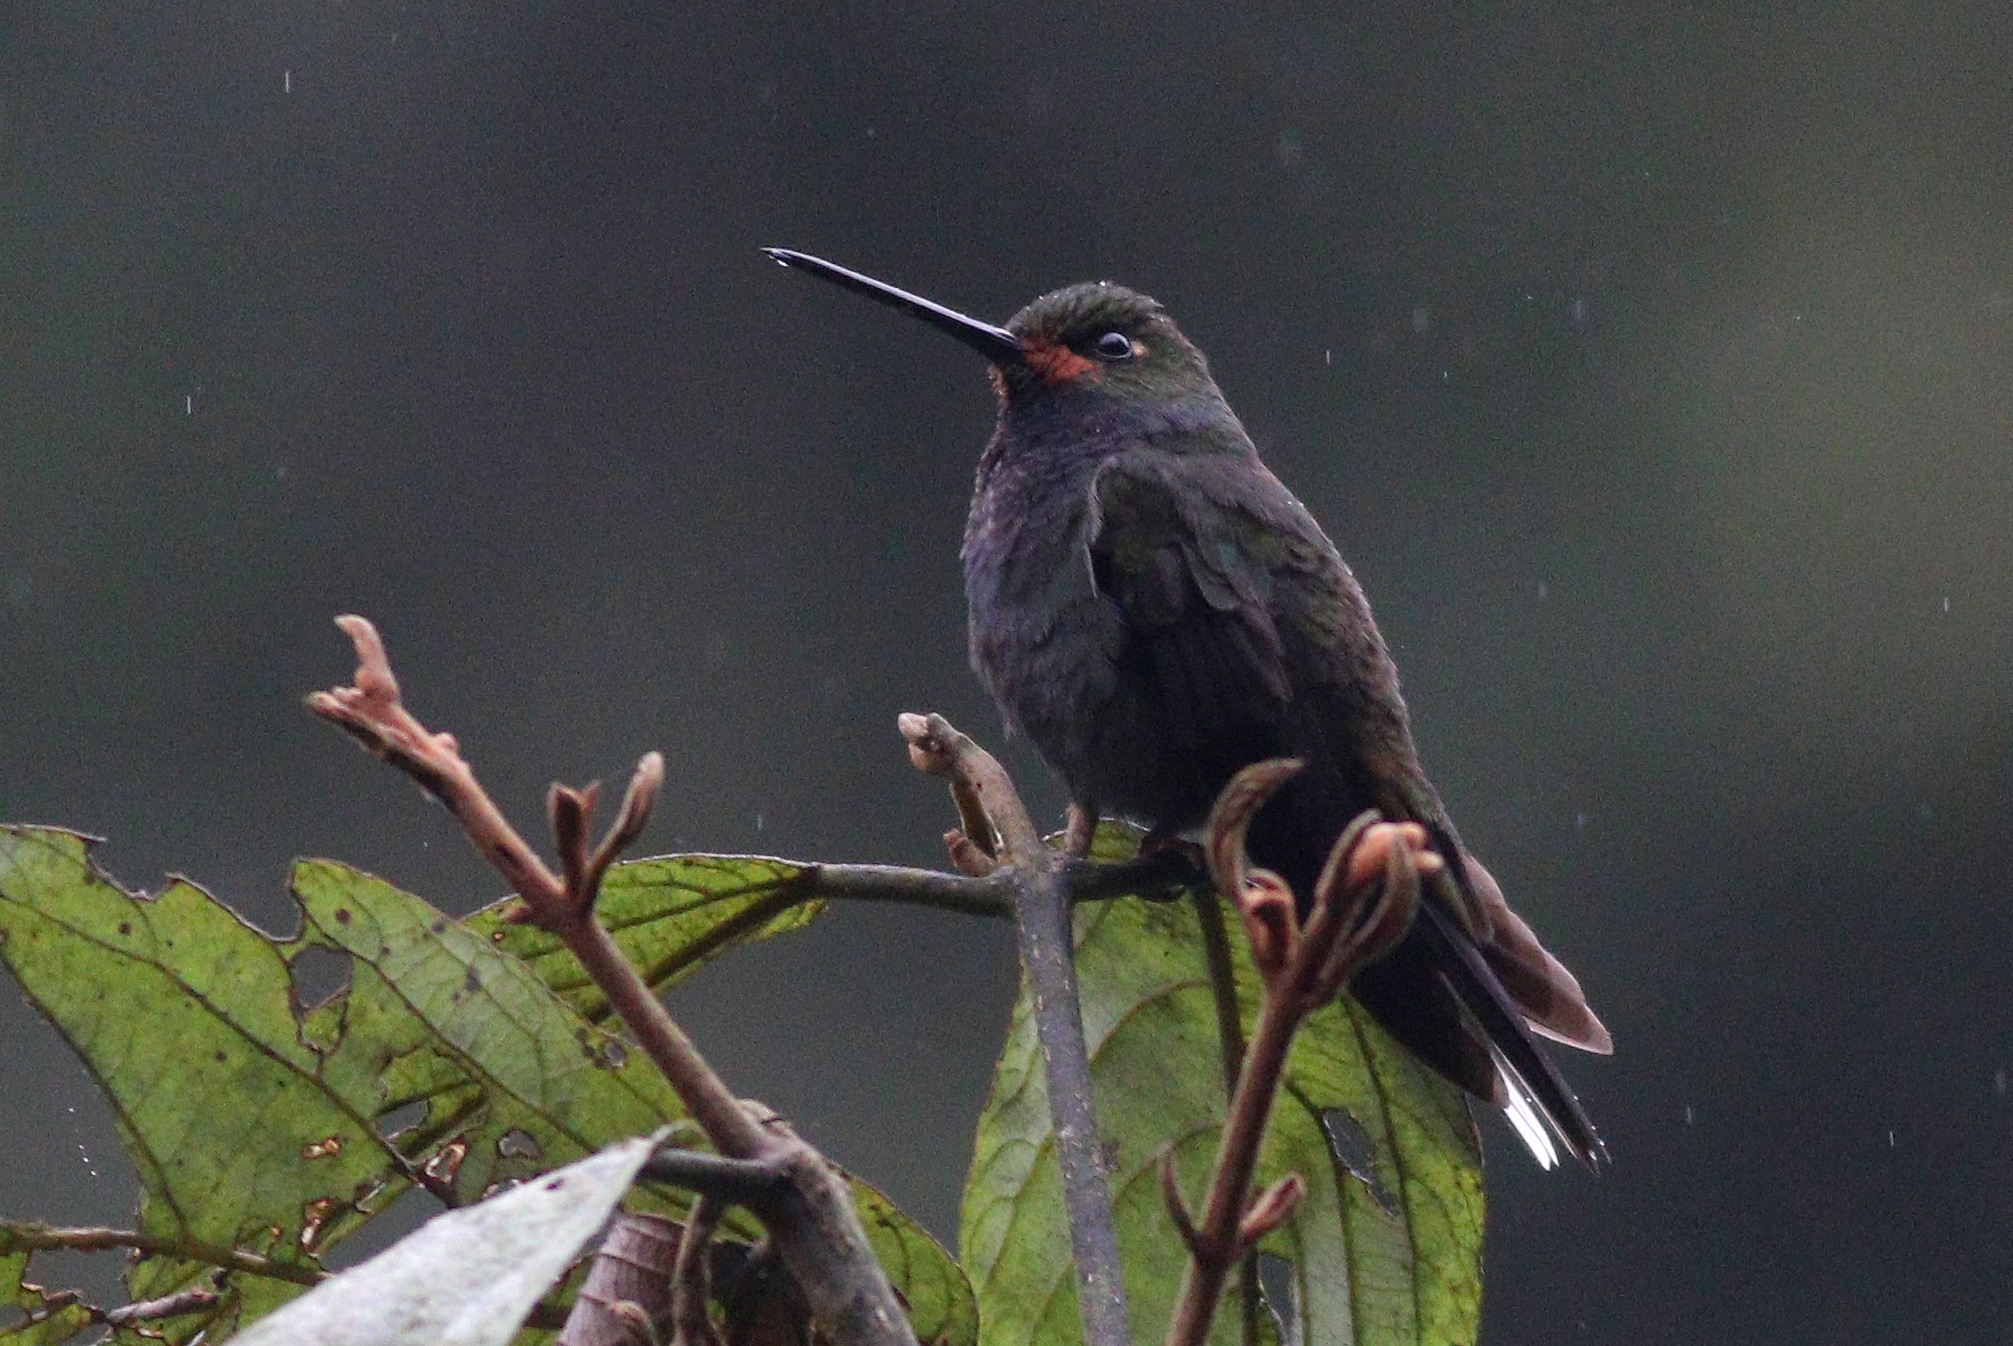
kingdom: Animalia
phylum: Chordata
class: Aves
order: Apodiformes
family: Trochilidae
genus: Urochroa
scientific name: Urochroa bougueri
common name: White-tailed hillstar
